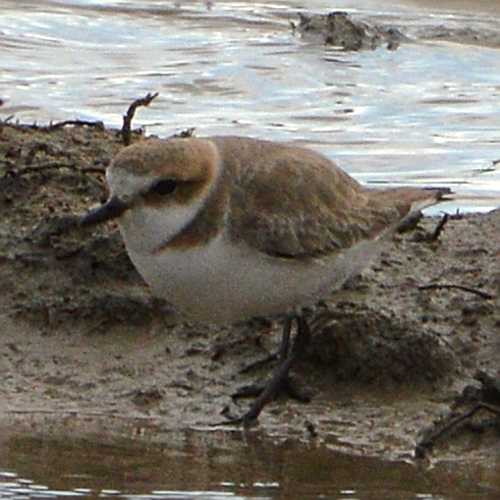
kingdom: Animalia
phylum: Chordata
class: Aves
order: Charadriiformes
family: Charadriidae
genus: Charadrius
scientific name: Charadrius alexandrinus
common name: Kentish plover
